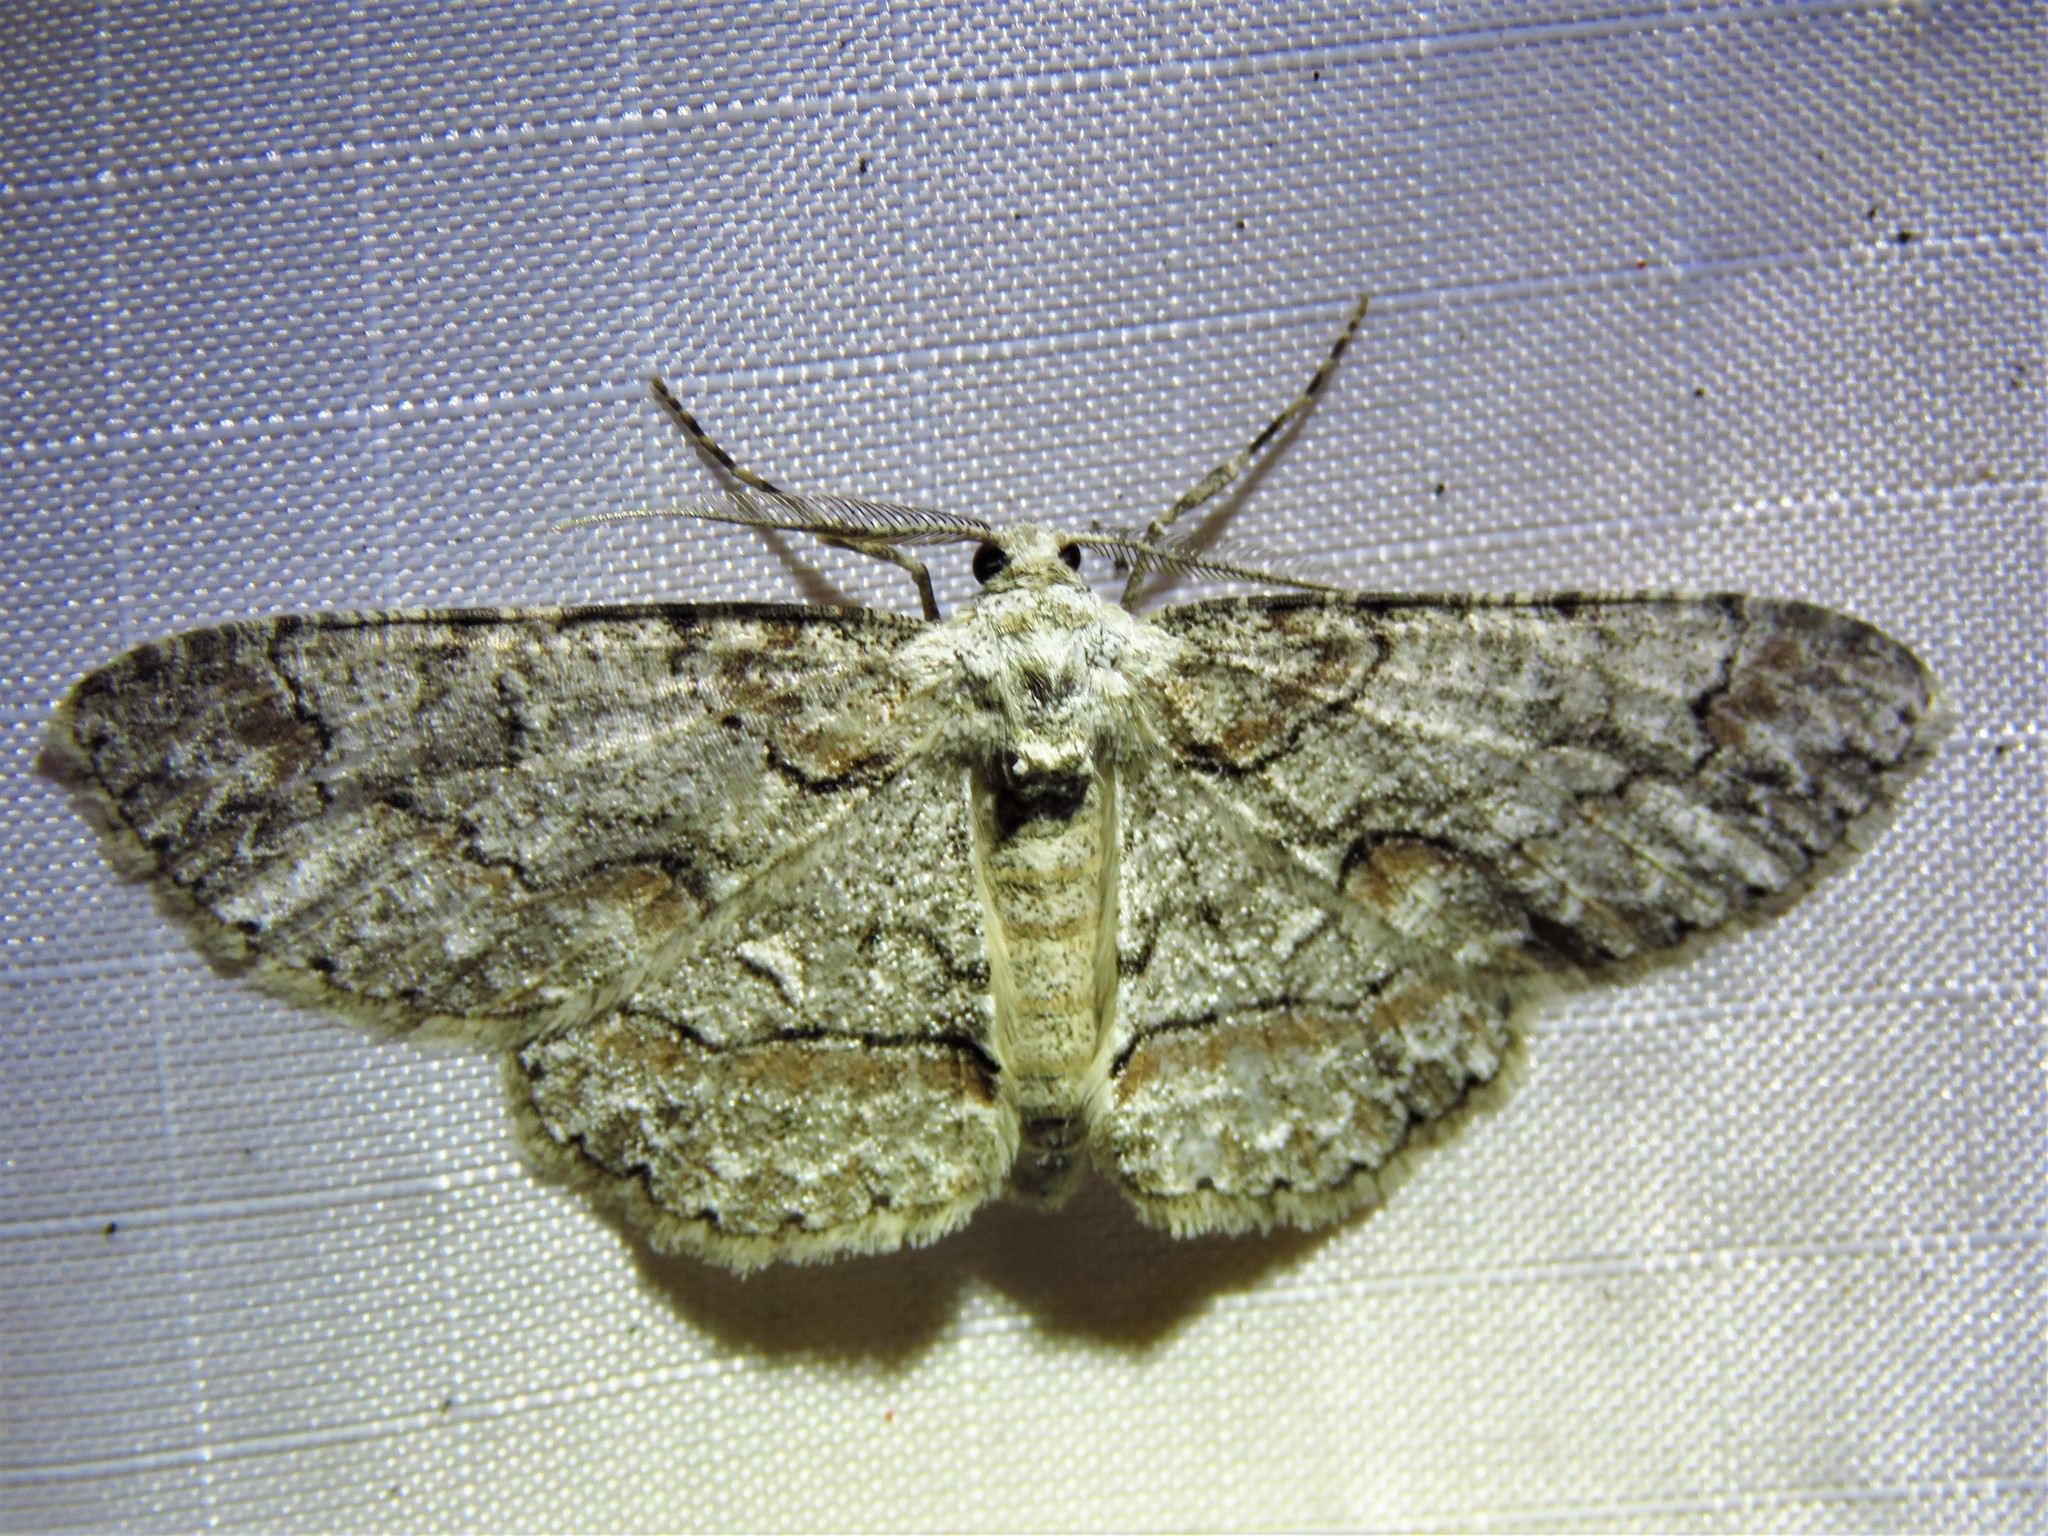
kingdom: Animalia
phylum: Arthropoda
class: Insecta
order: Lepidoptera
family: Geometridae
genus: Iridopsis
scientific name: Iridopsis defectaria
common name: Brown-shaded gray
